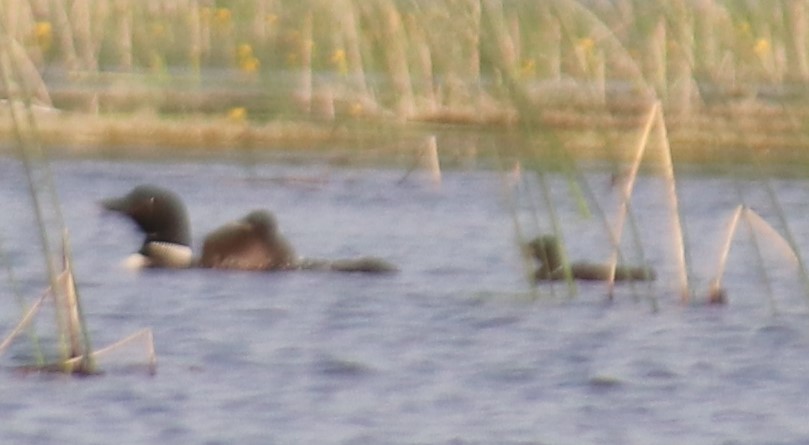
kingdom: Animalia
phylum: Chordata
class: Aves
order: Gaviiformes
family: Gaviidae
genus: Gavia
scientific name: Gavia immer
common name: Common loon
